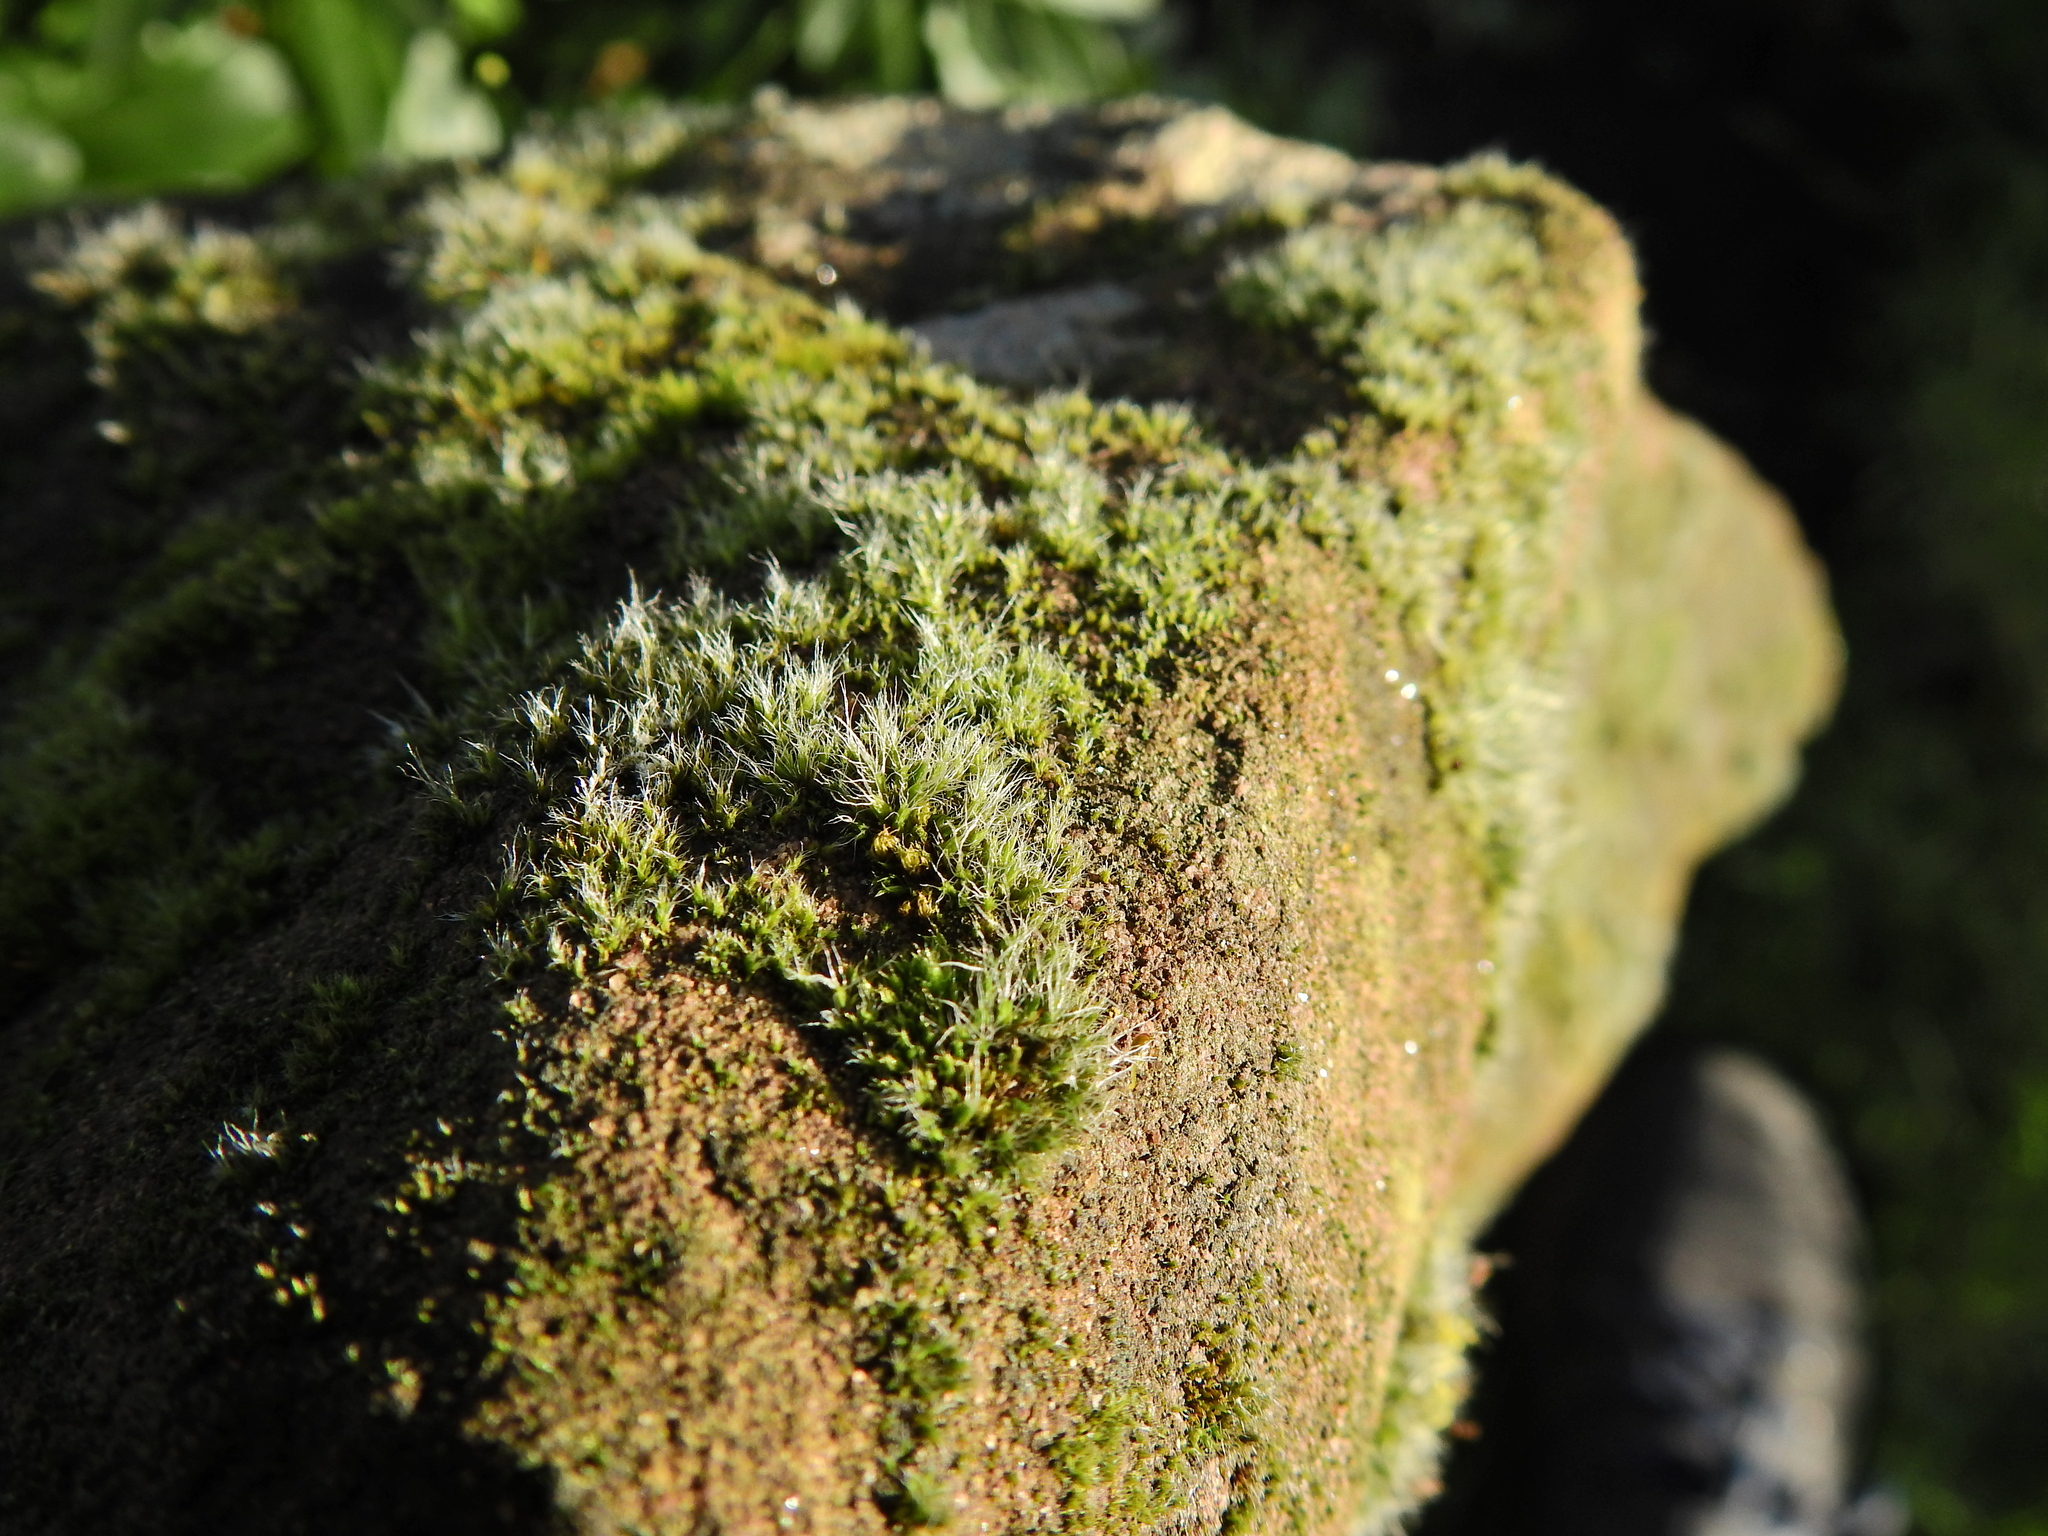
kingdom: Plantae
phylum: Bryophyta
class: Bryopsida
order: Grimmiales
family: Grimmiaceae
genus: Grimmia
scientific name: Grimmia pulvinata
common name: Grey-cushioned grimmia
